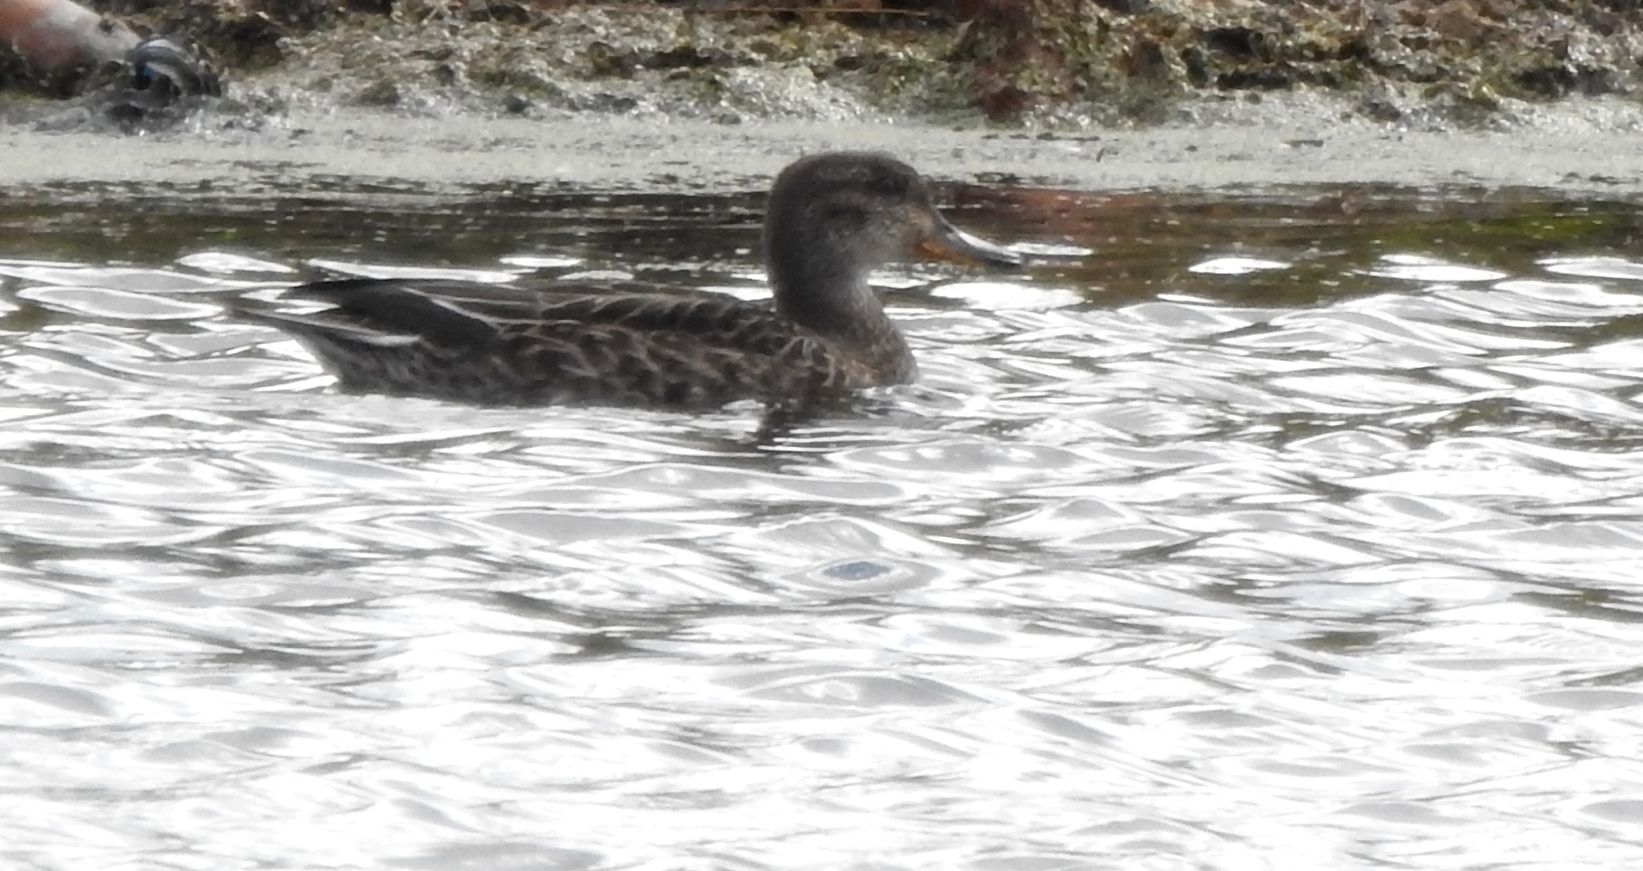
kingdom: Animalia
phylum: Chordata
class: Aves
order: Anseriformes
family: Anatidae
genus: Anas
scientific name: Anas crecca
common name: Eurasian teal
